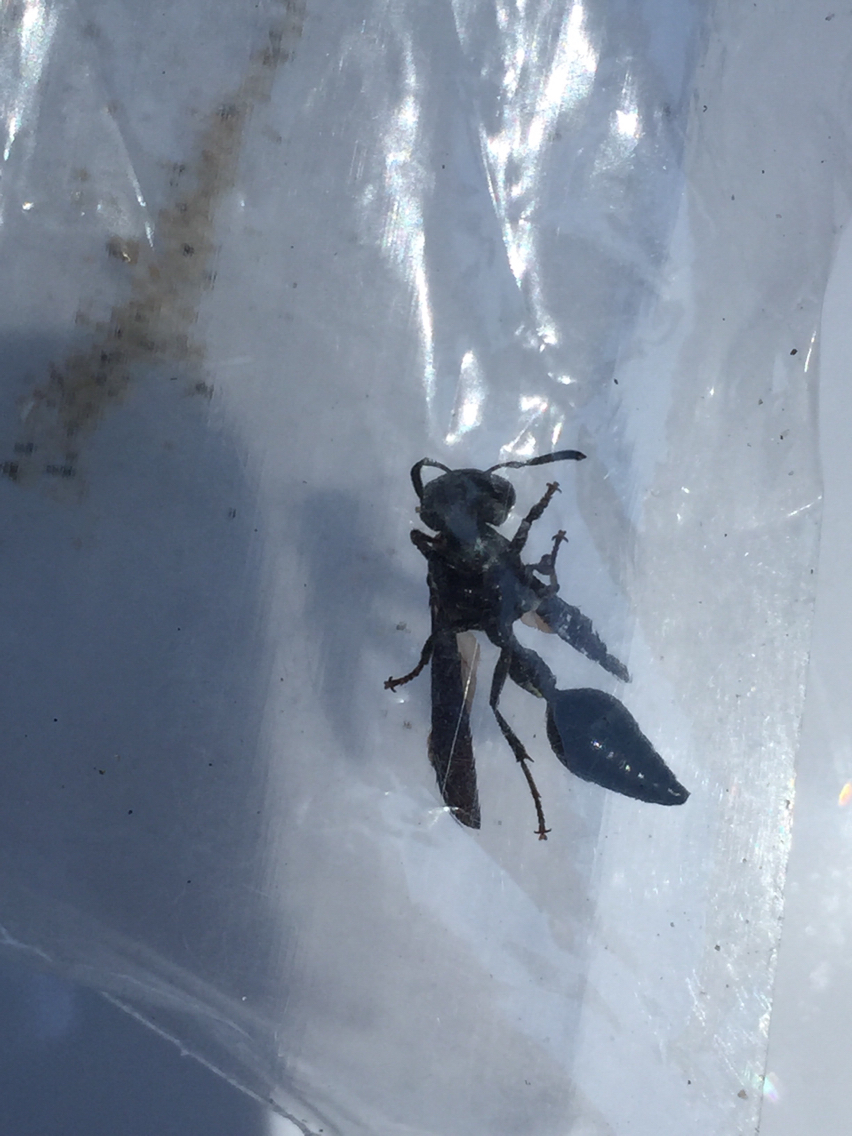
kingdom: Animalia
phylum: Arthropoda
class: Insecta
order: Hymenoptera
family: Eumenidae
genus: Zethus
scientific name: Zethus spinipes
